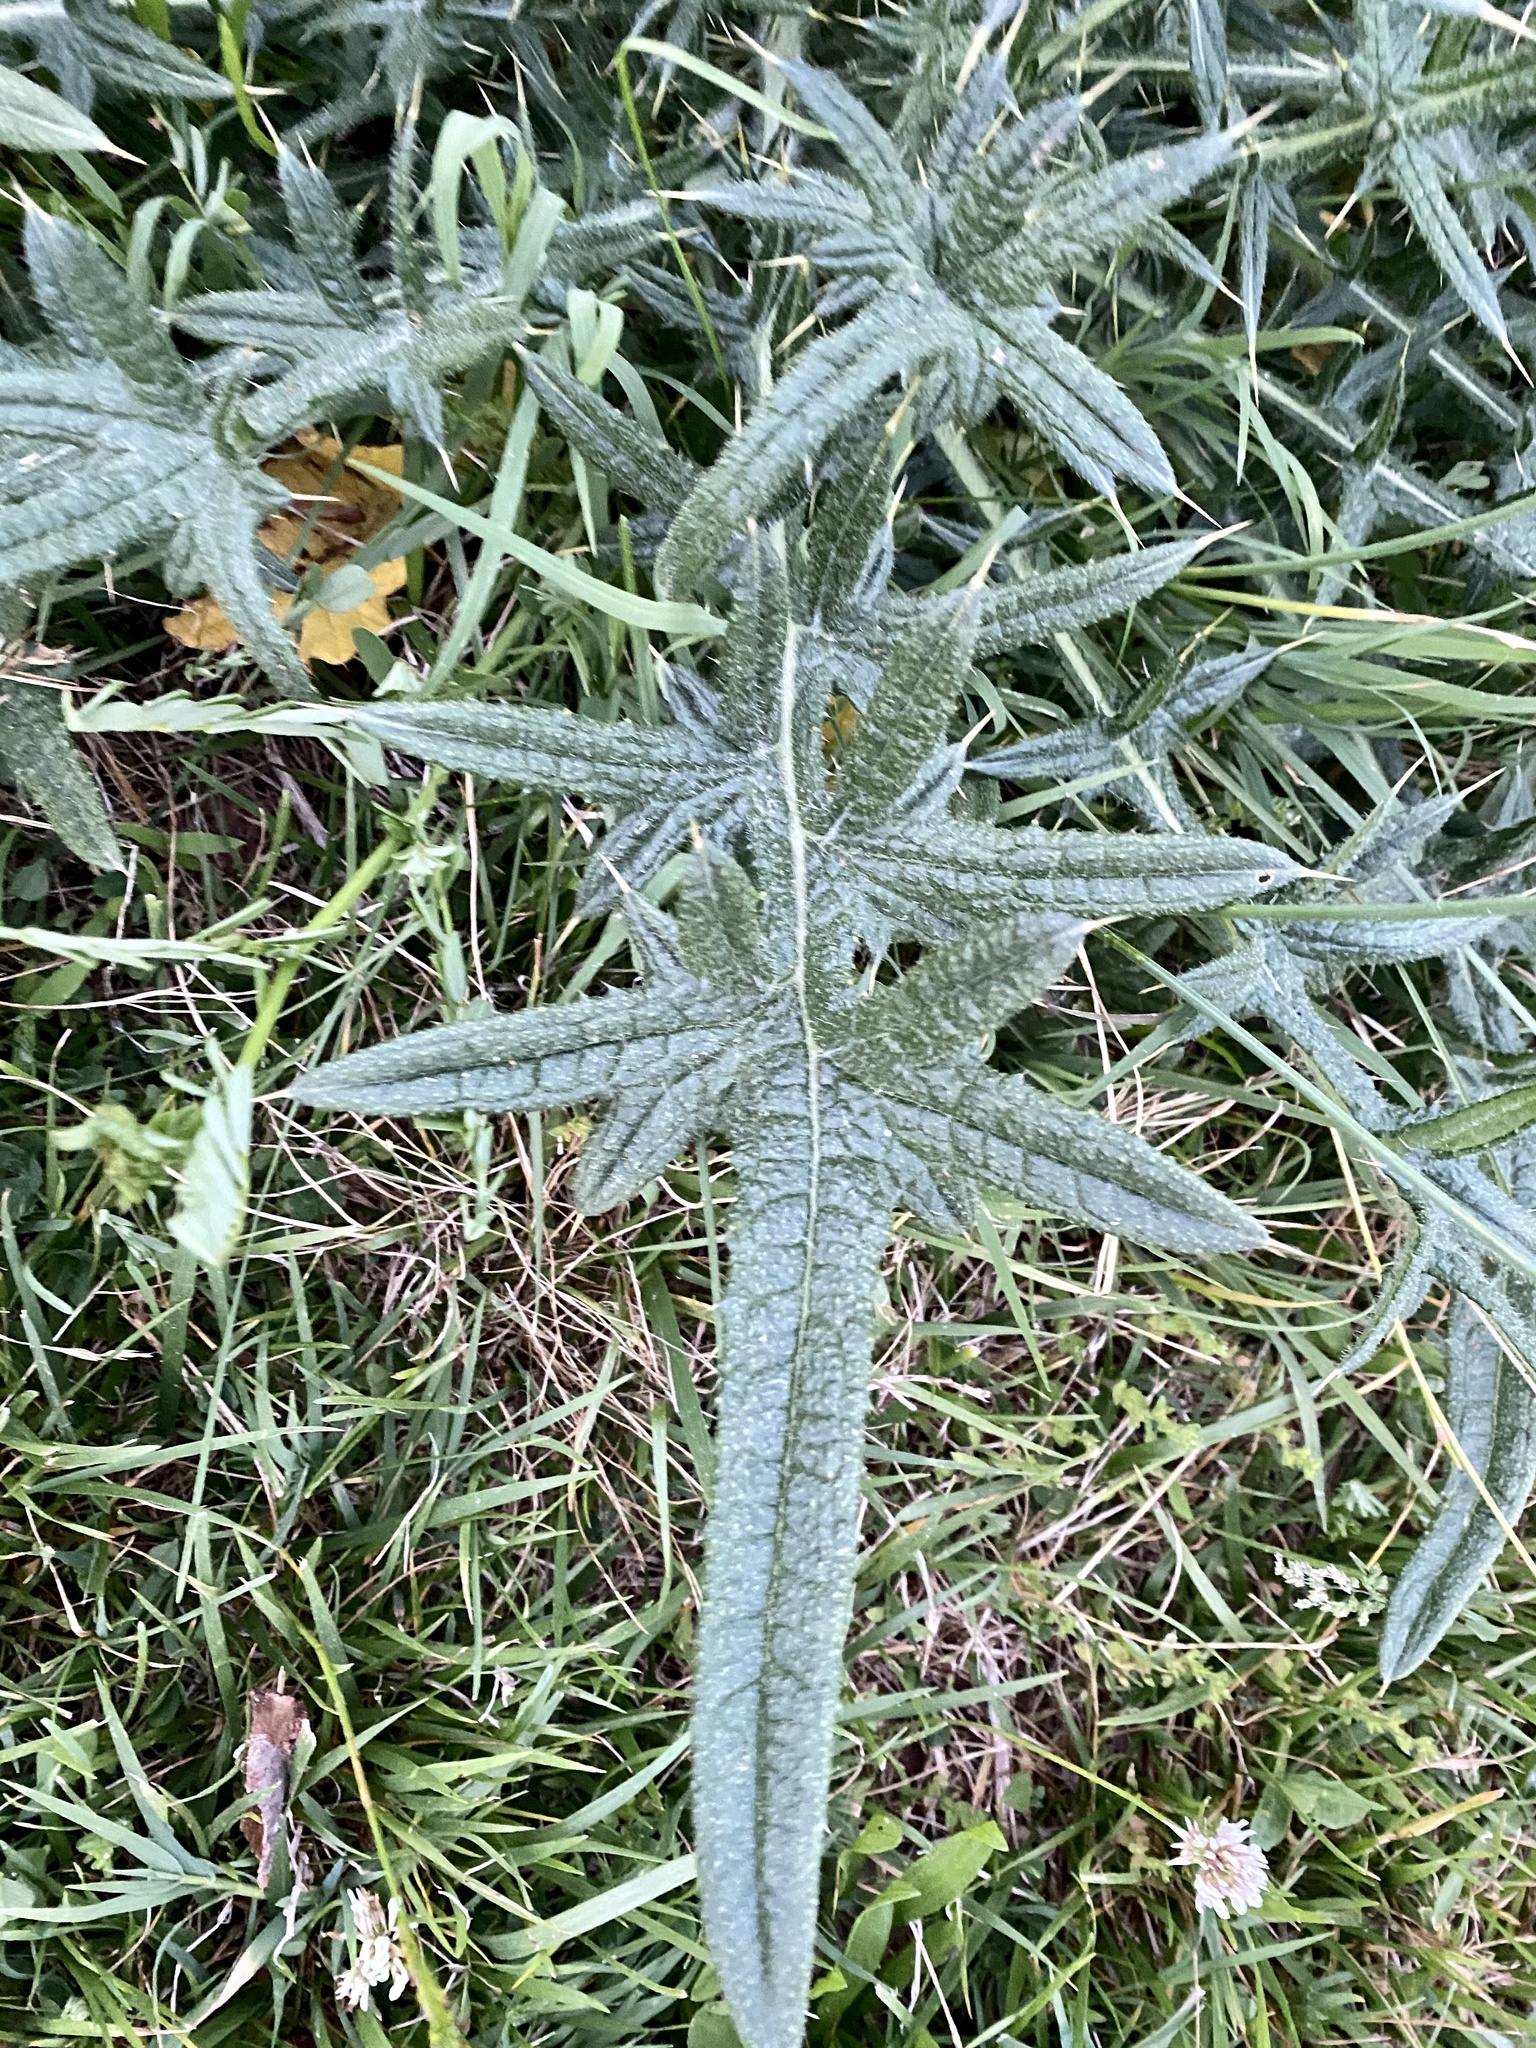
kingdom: Plantae
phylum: Tracheophyta
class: Magnoliopsida
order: Asterales
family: Asteraceae
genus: Cirsium
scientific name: Cirsium vulgare
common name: Bull thistle
